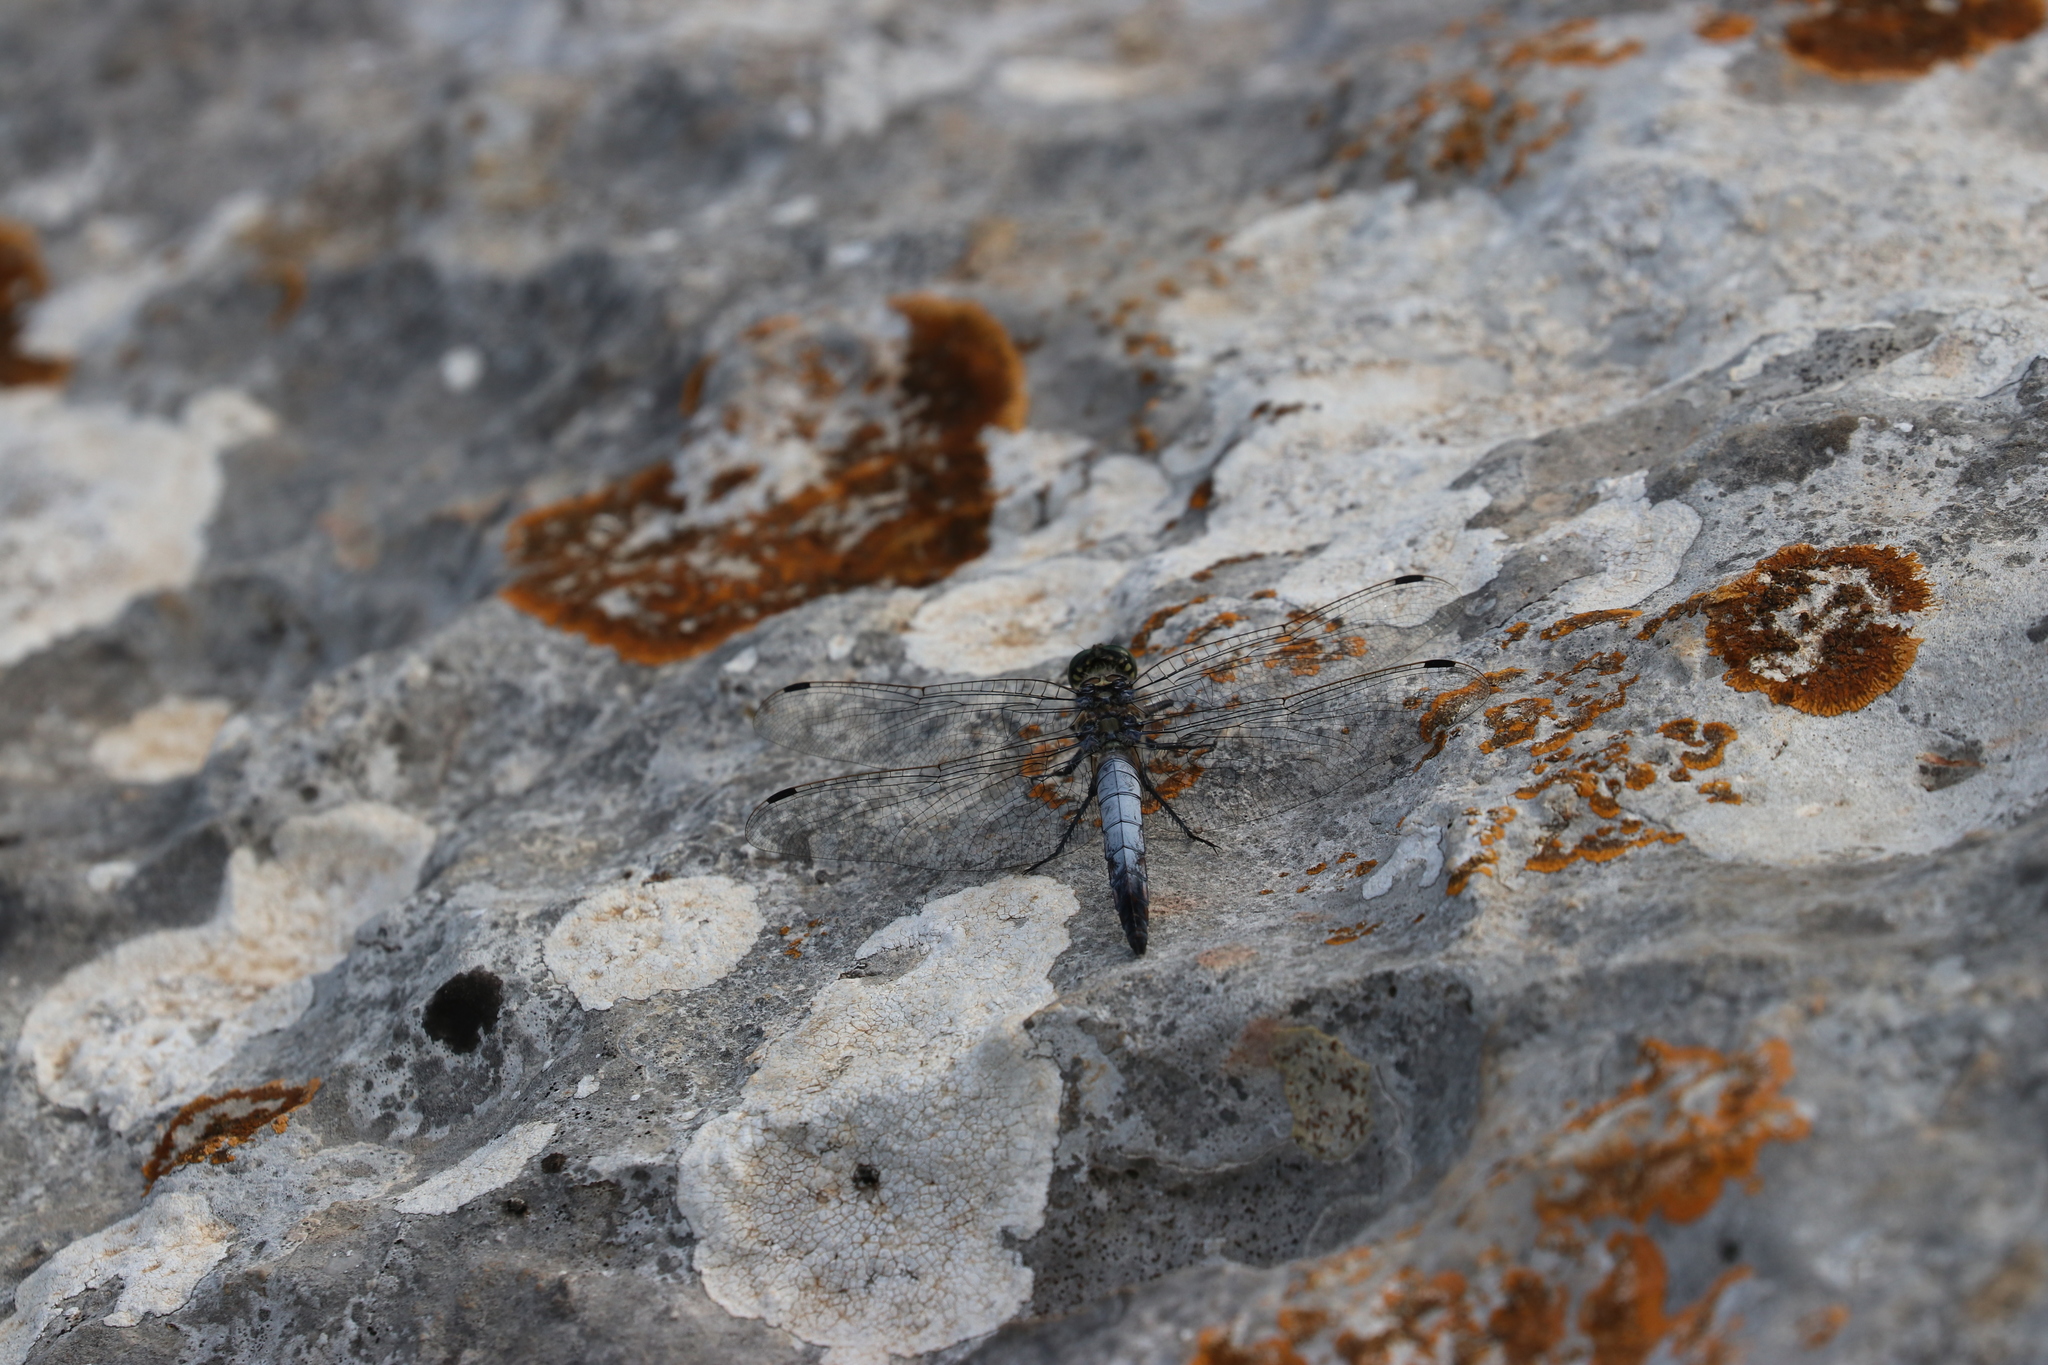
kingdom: Animalia
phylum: Arthropoda
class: Insecta
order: Odonata
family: Libellulidae
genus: Orthetrum
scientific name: Orthetrum cancellatum
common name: Black-tailed skimmer
